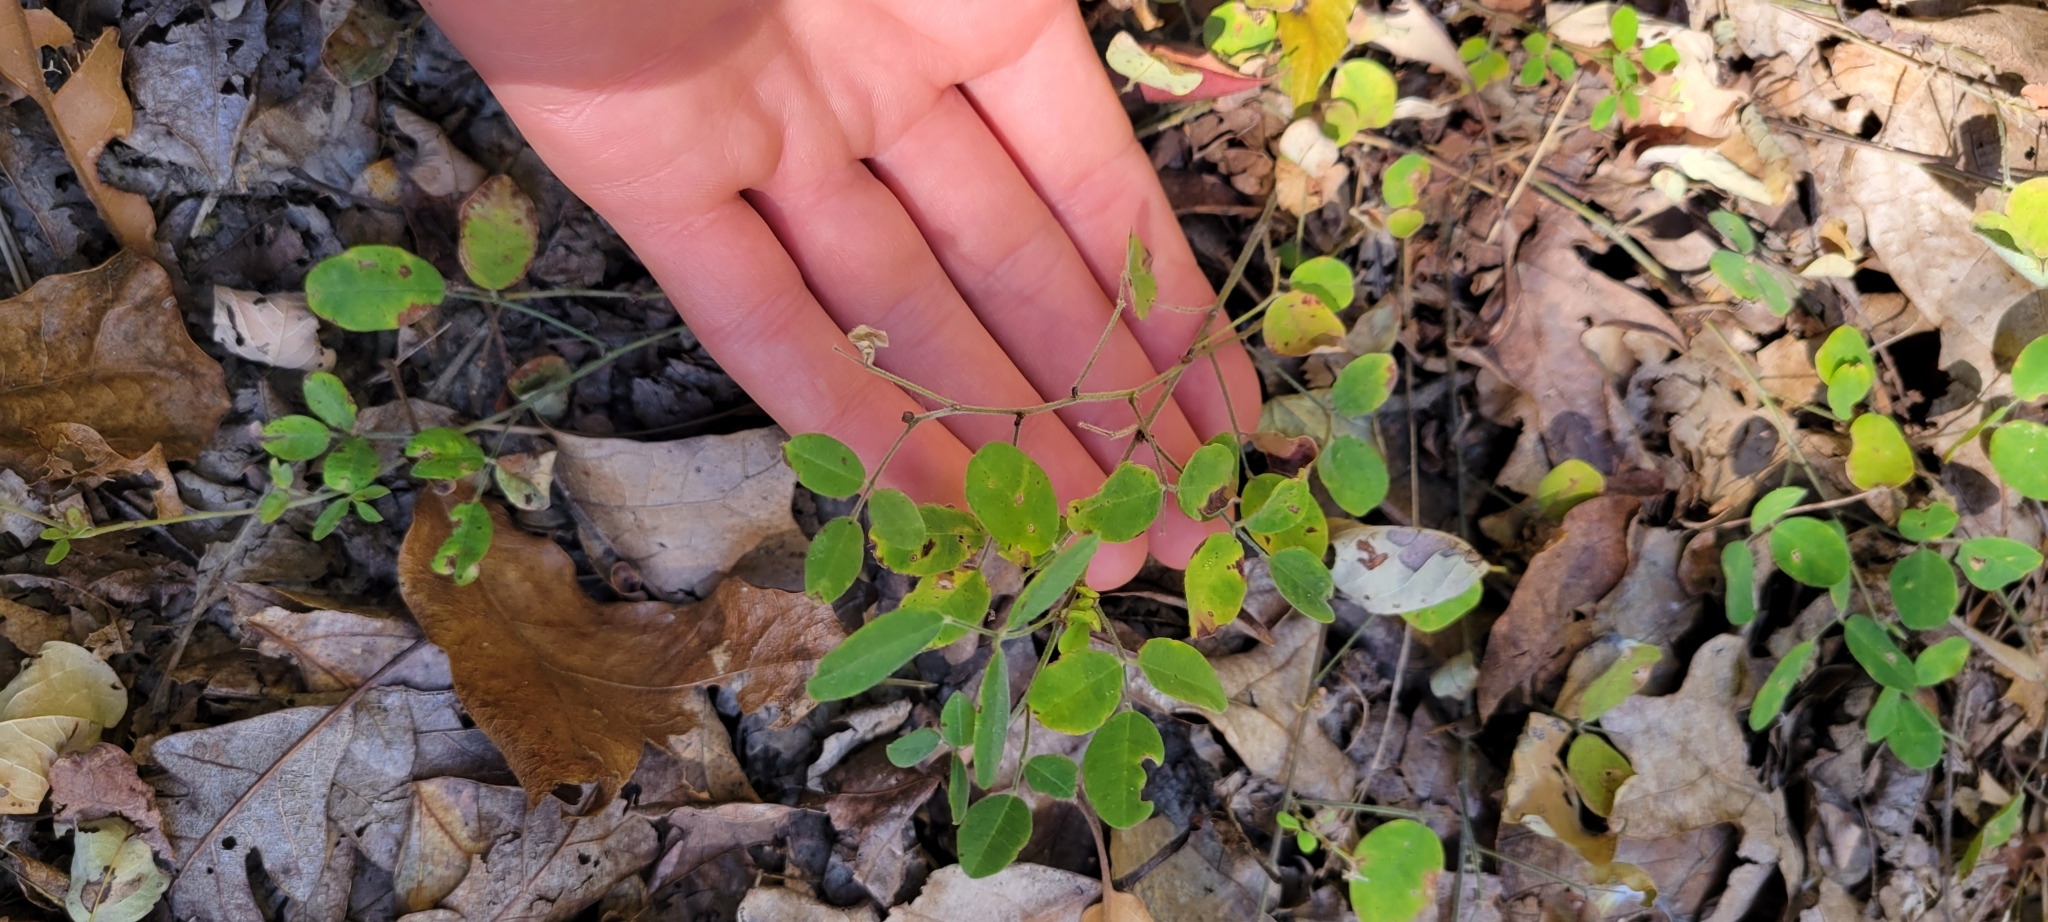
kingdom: Plantae
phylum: Tracheophyta
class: Magnoliopsida
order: Fabales
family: Fabaceae
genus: Lespedeza
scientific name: Lespedeza procumbens
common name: Downy trailing bush-clover
